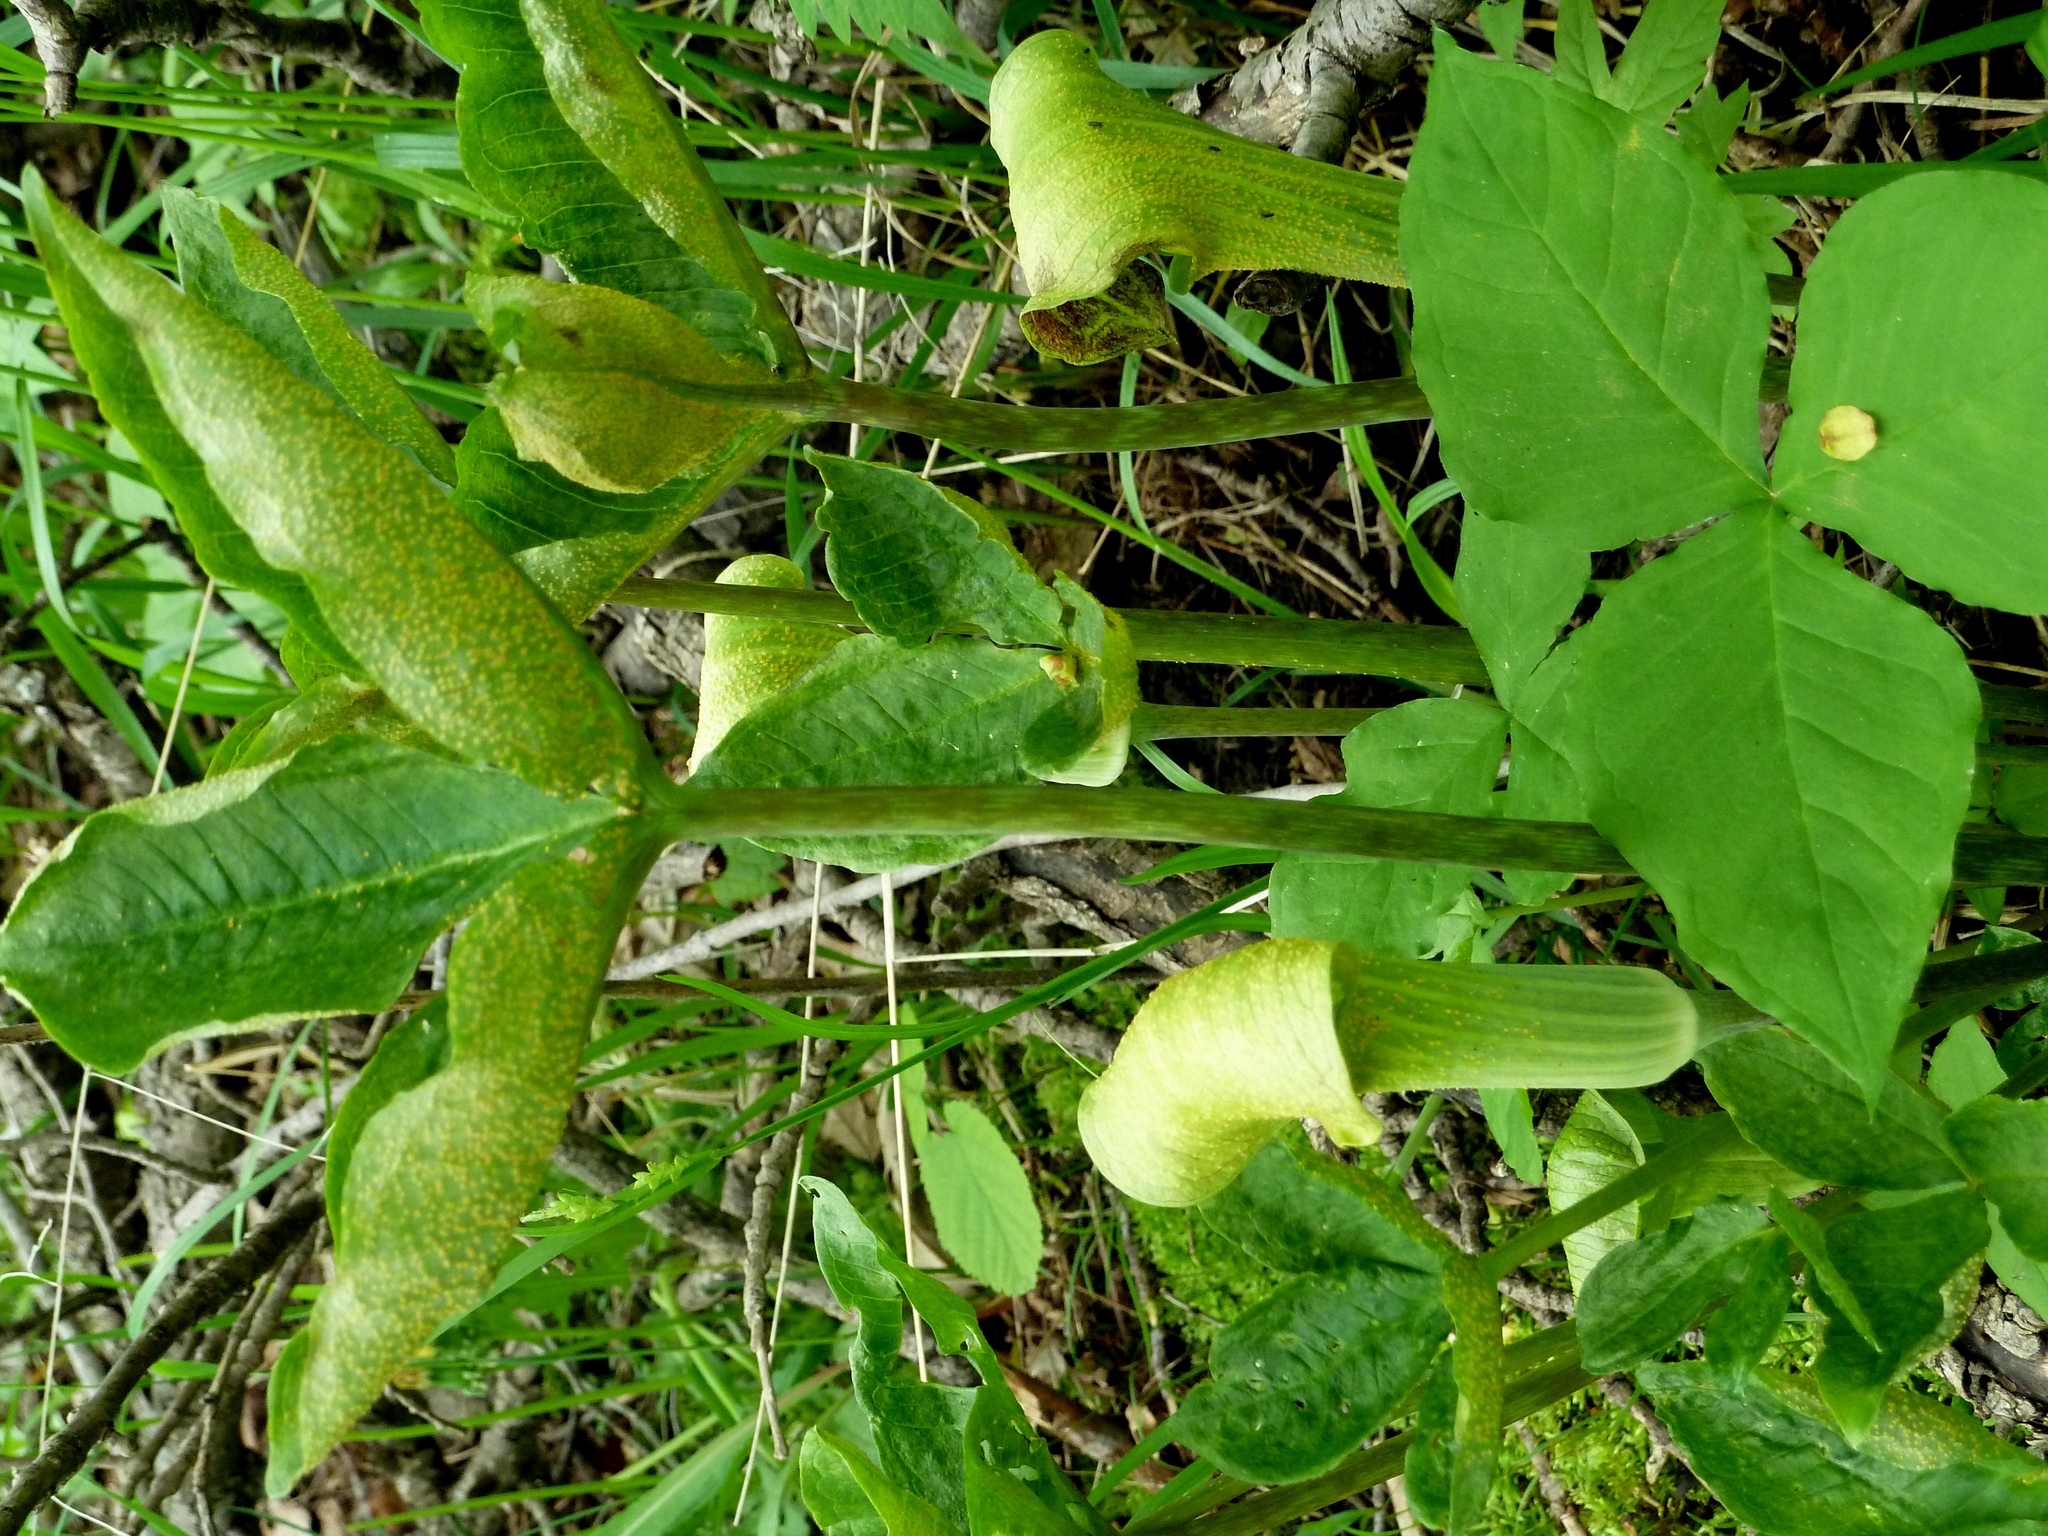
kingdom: Plantae
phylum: Tracheophyta
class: Liliopsida
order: Alismatales
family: Araceae
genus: Arisaema
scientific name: Arisaema triphyllum
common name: Jack-in-the-pulpit
